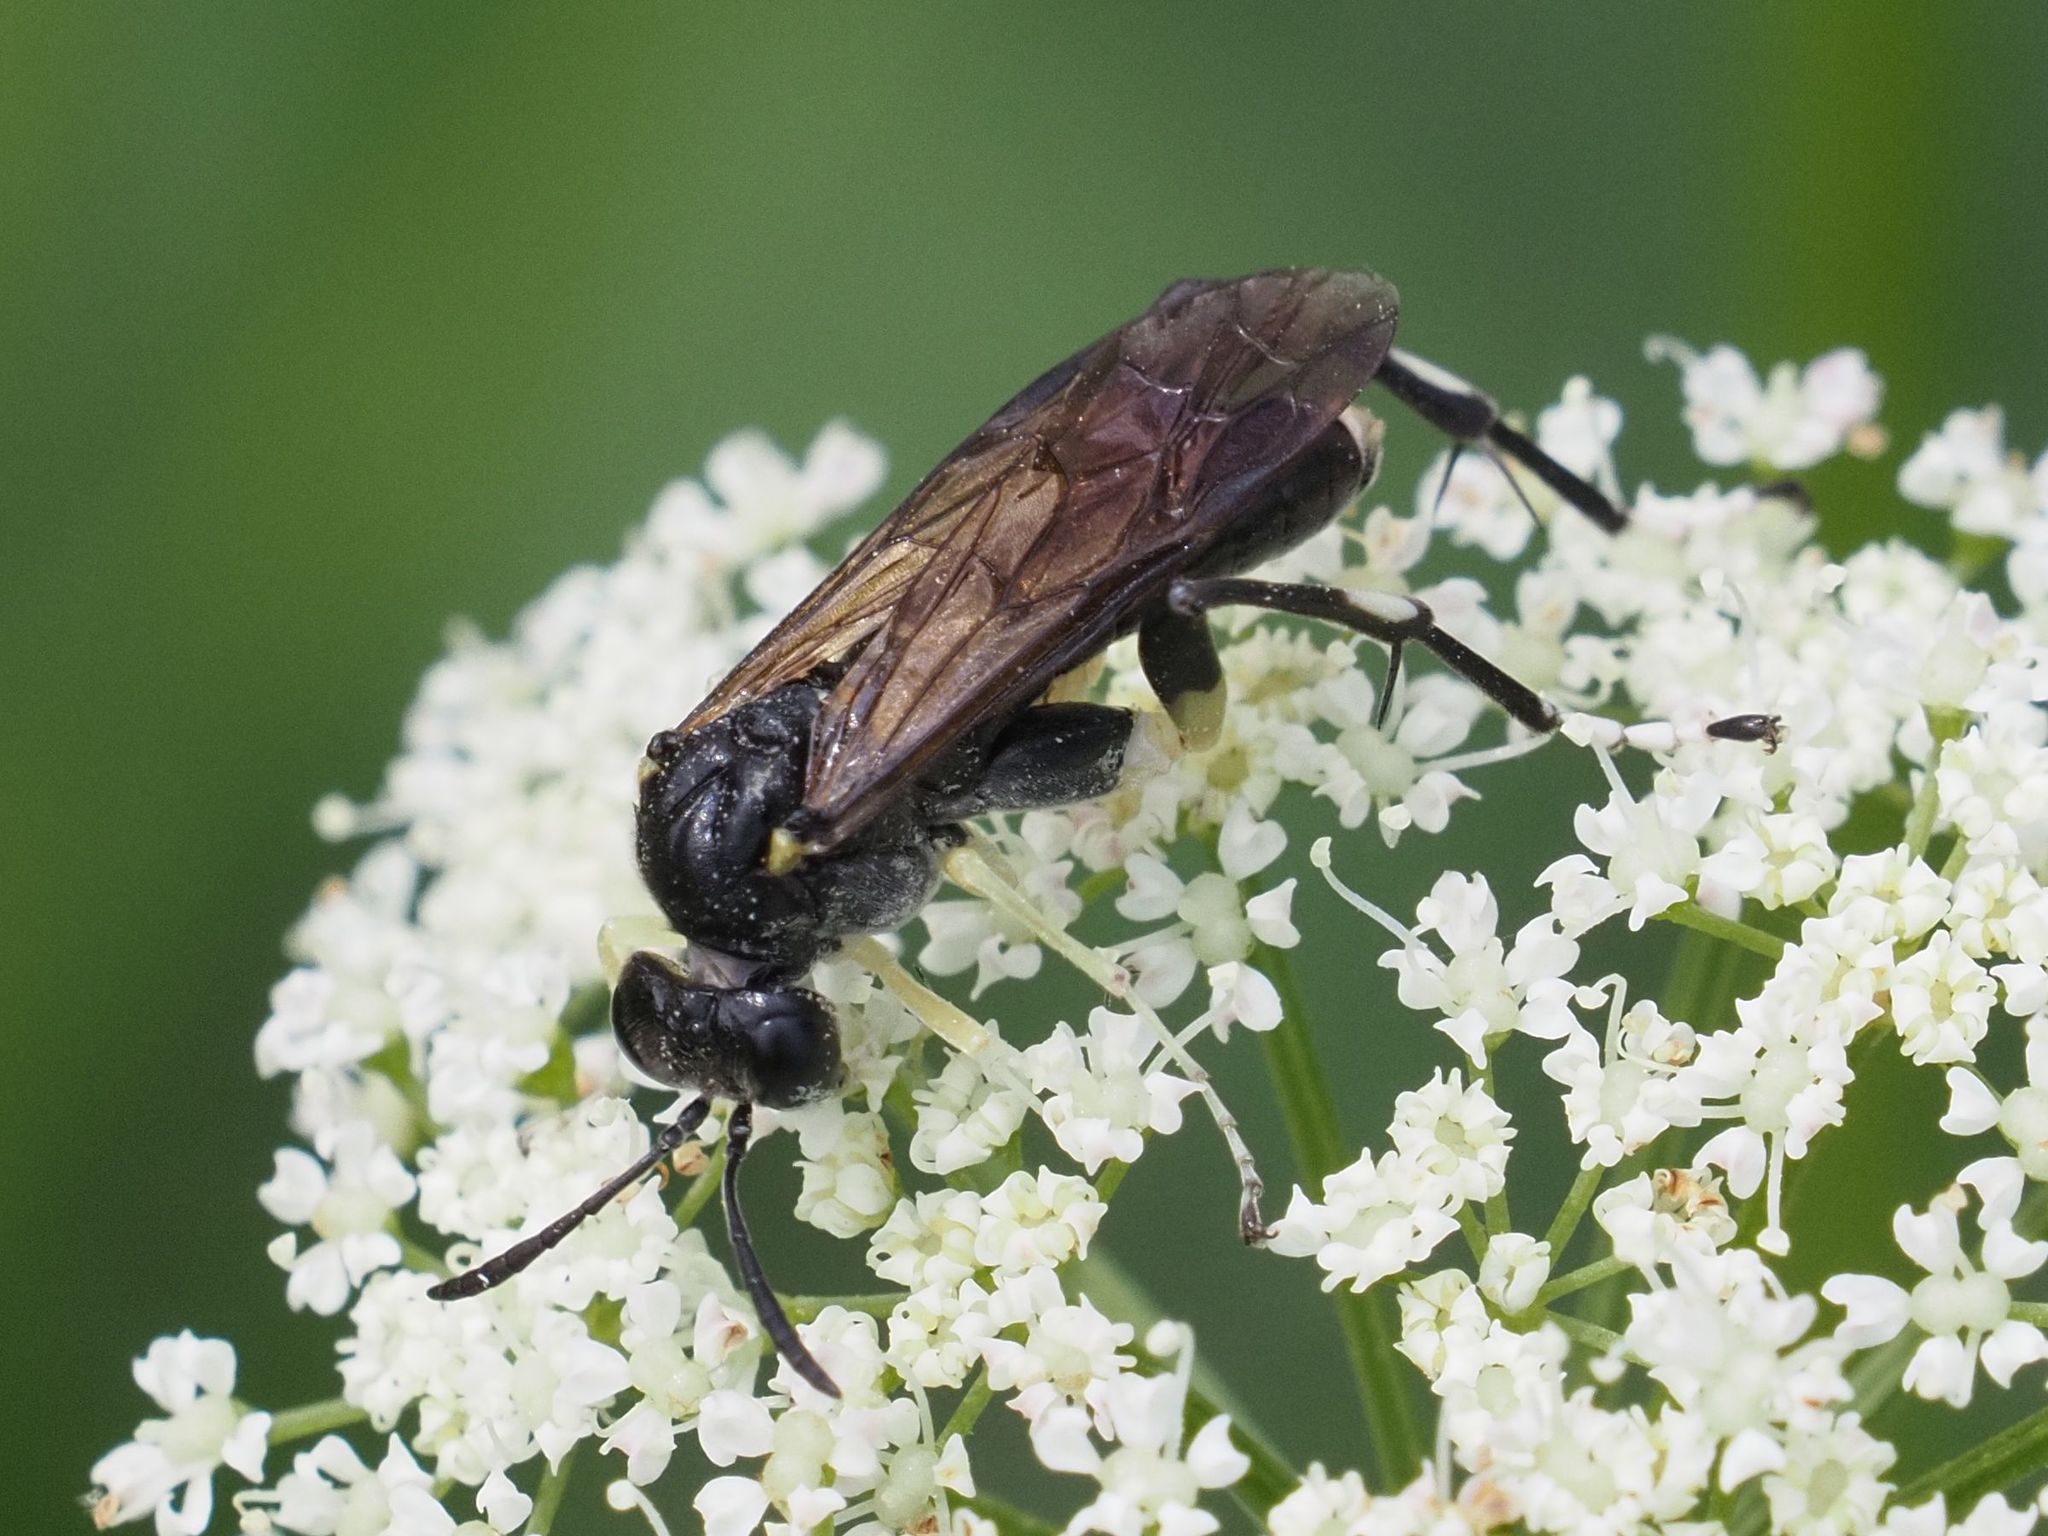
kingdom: Animalia
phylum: Arthropoda
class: Insecta
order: Hymenoptera
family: Tenthredinidae
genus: Macrophya
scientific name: Macrophya montana
